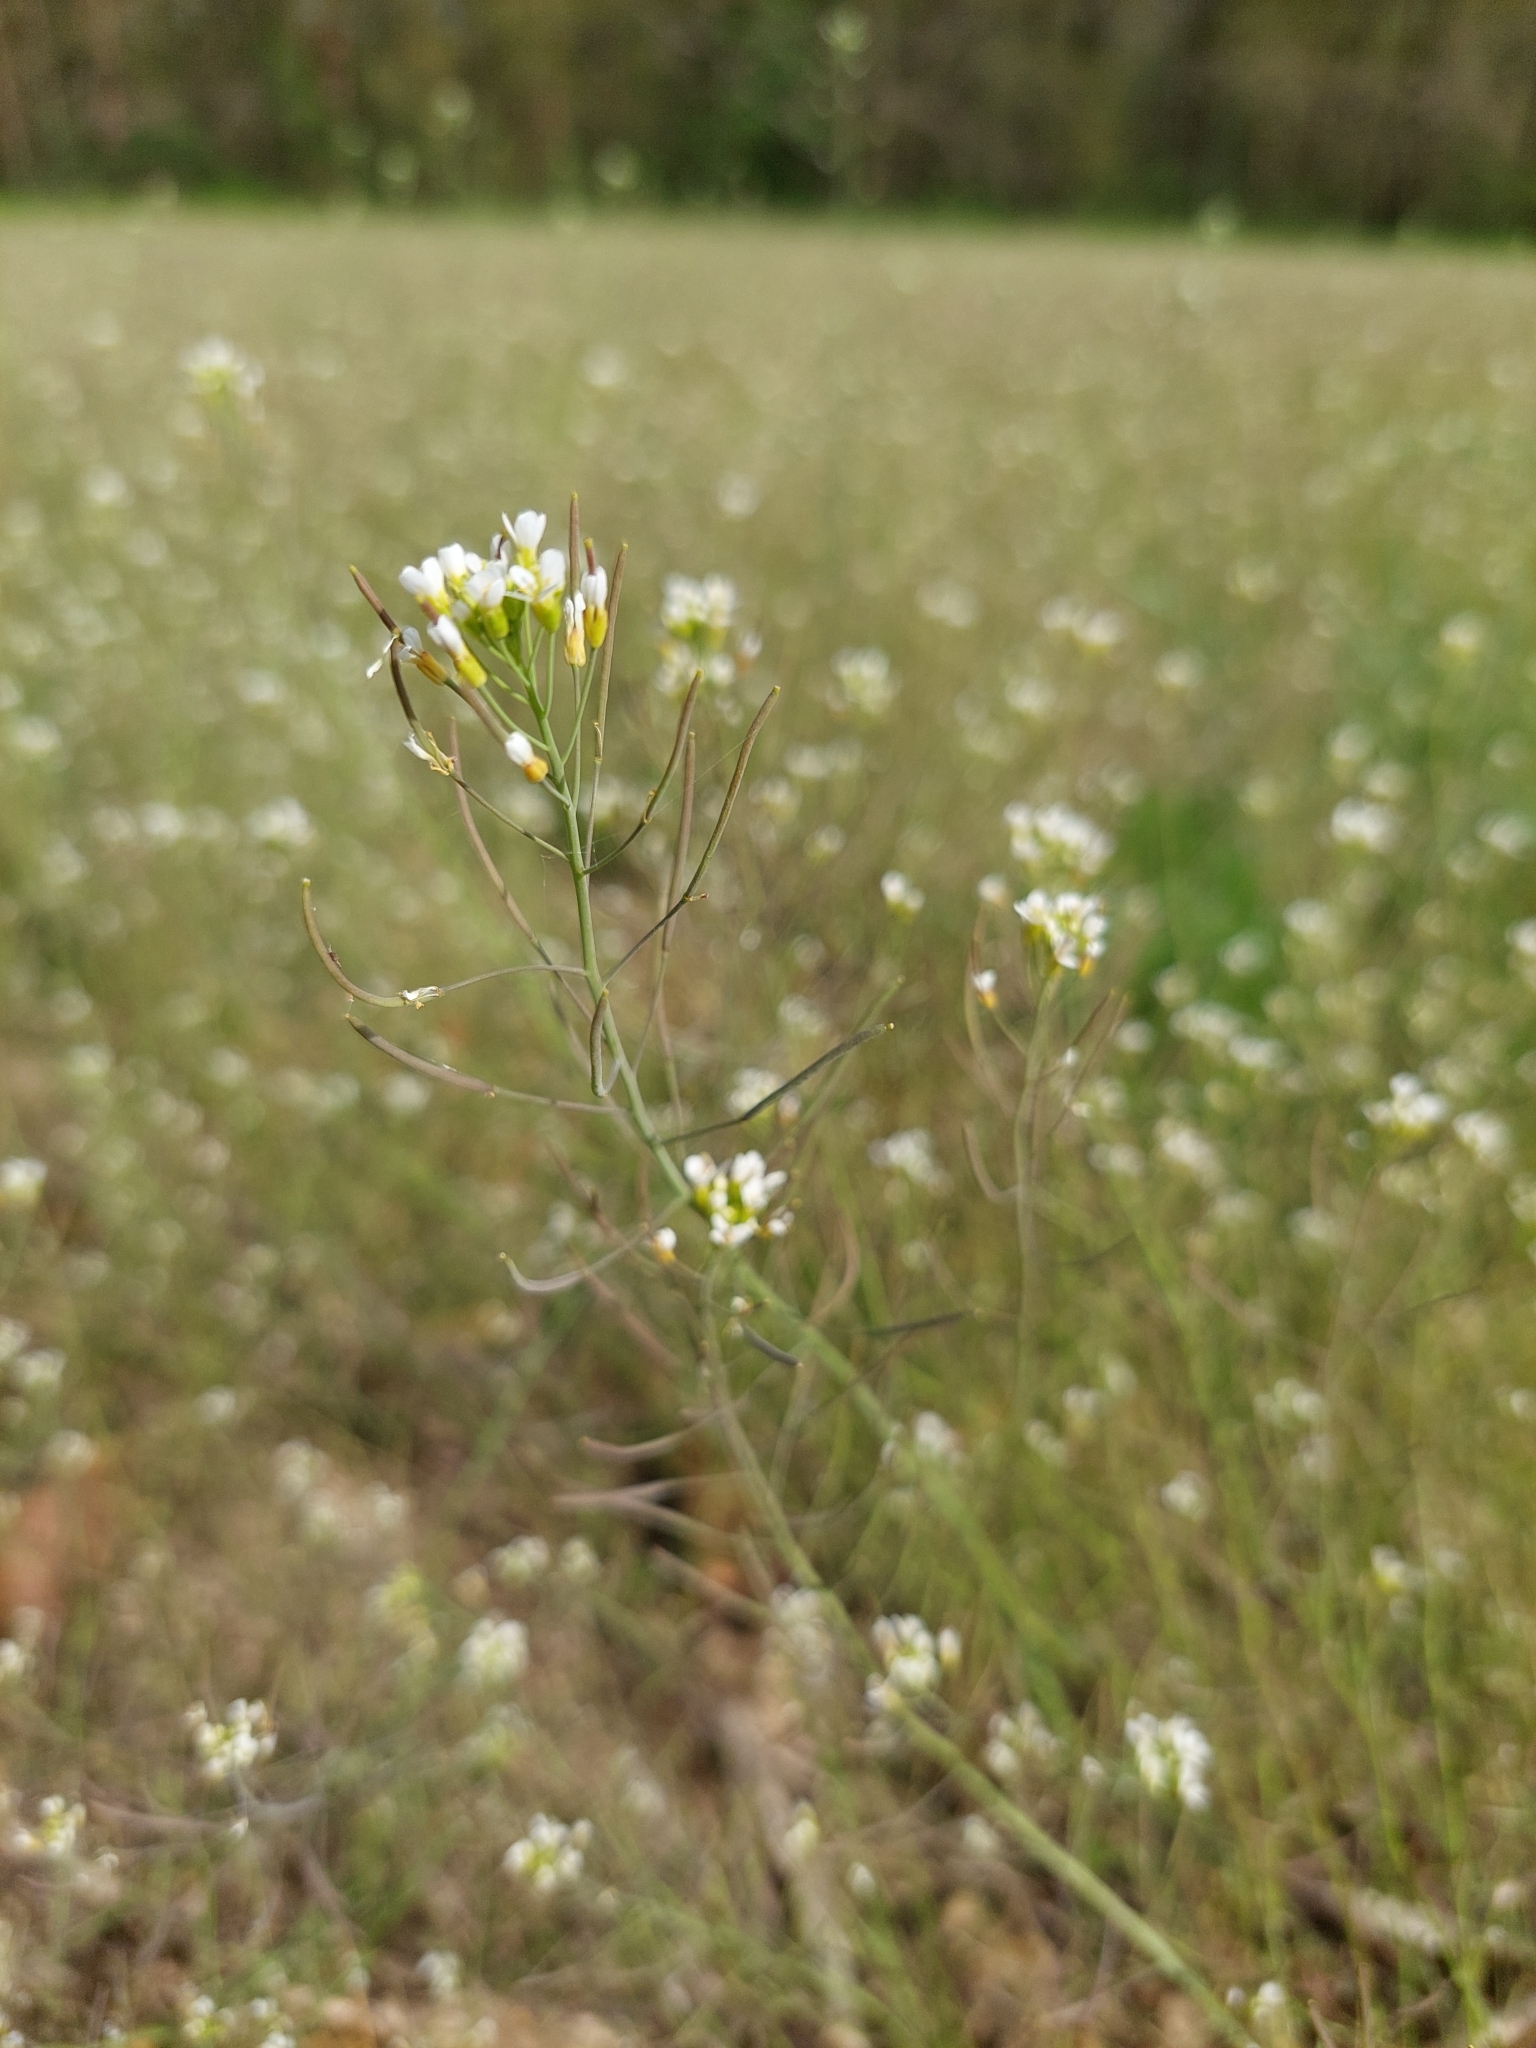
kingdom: Plantae
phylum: Tracheophyta
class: Magnoliopsida
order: Brassicales
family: Brassicaceae
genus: Arabidopsis
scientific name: Arabidopsis thaliana
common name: Thale cress
